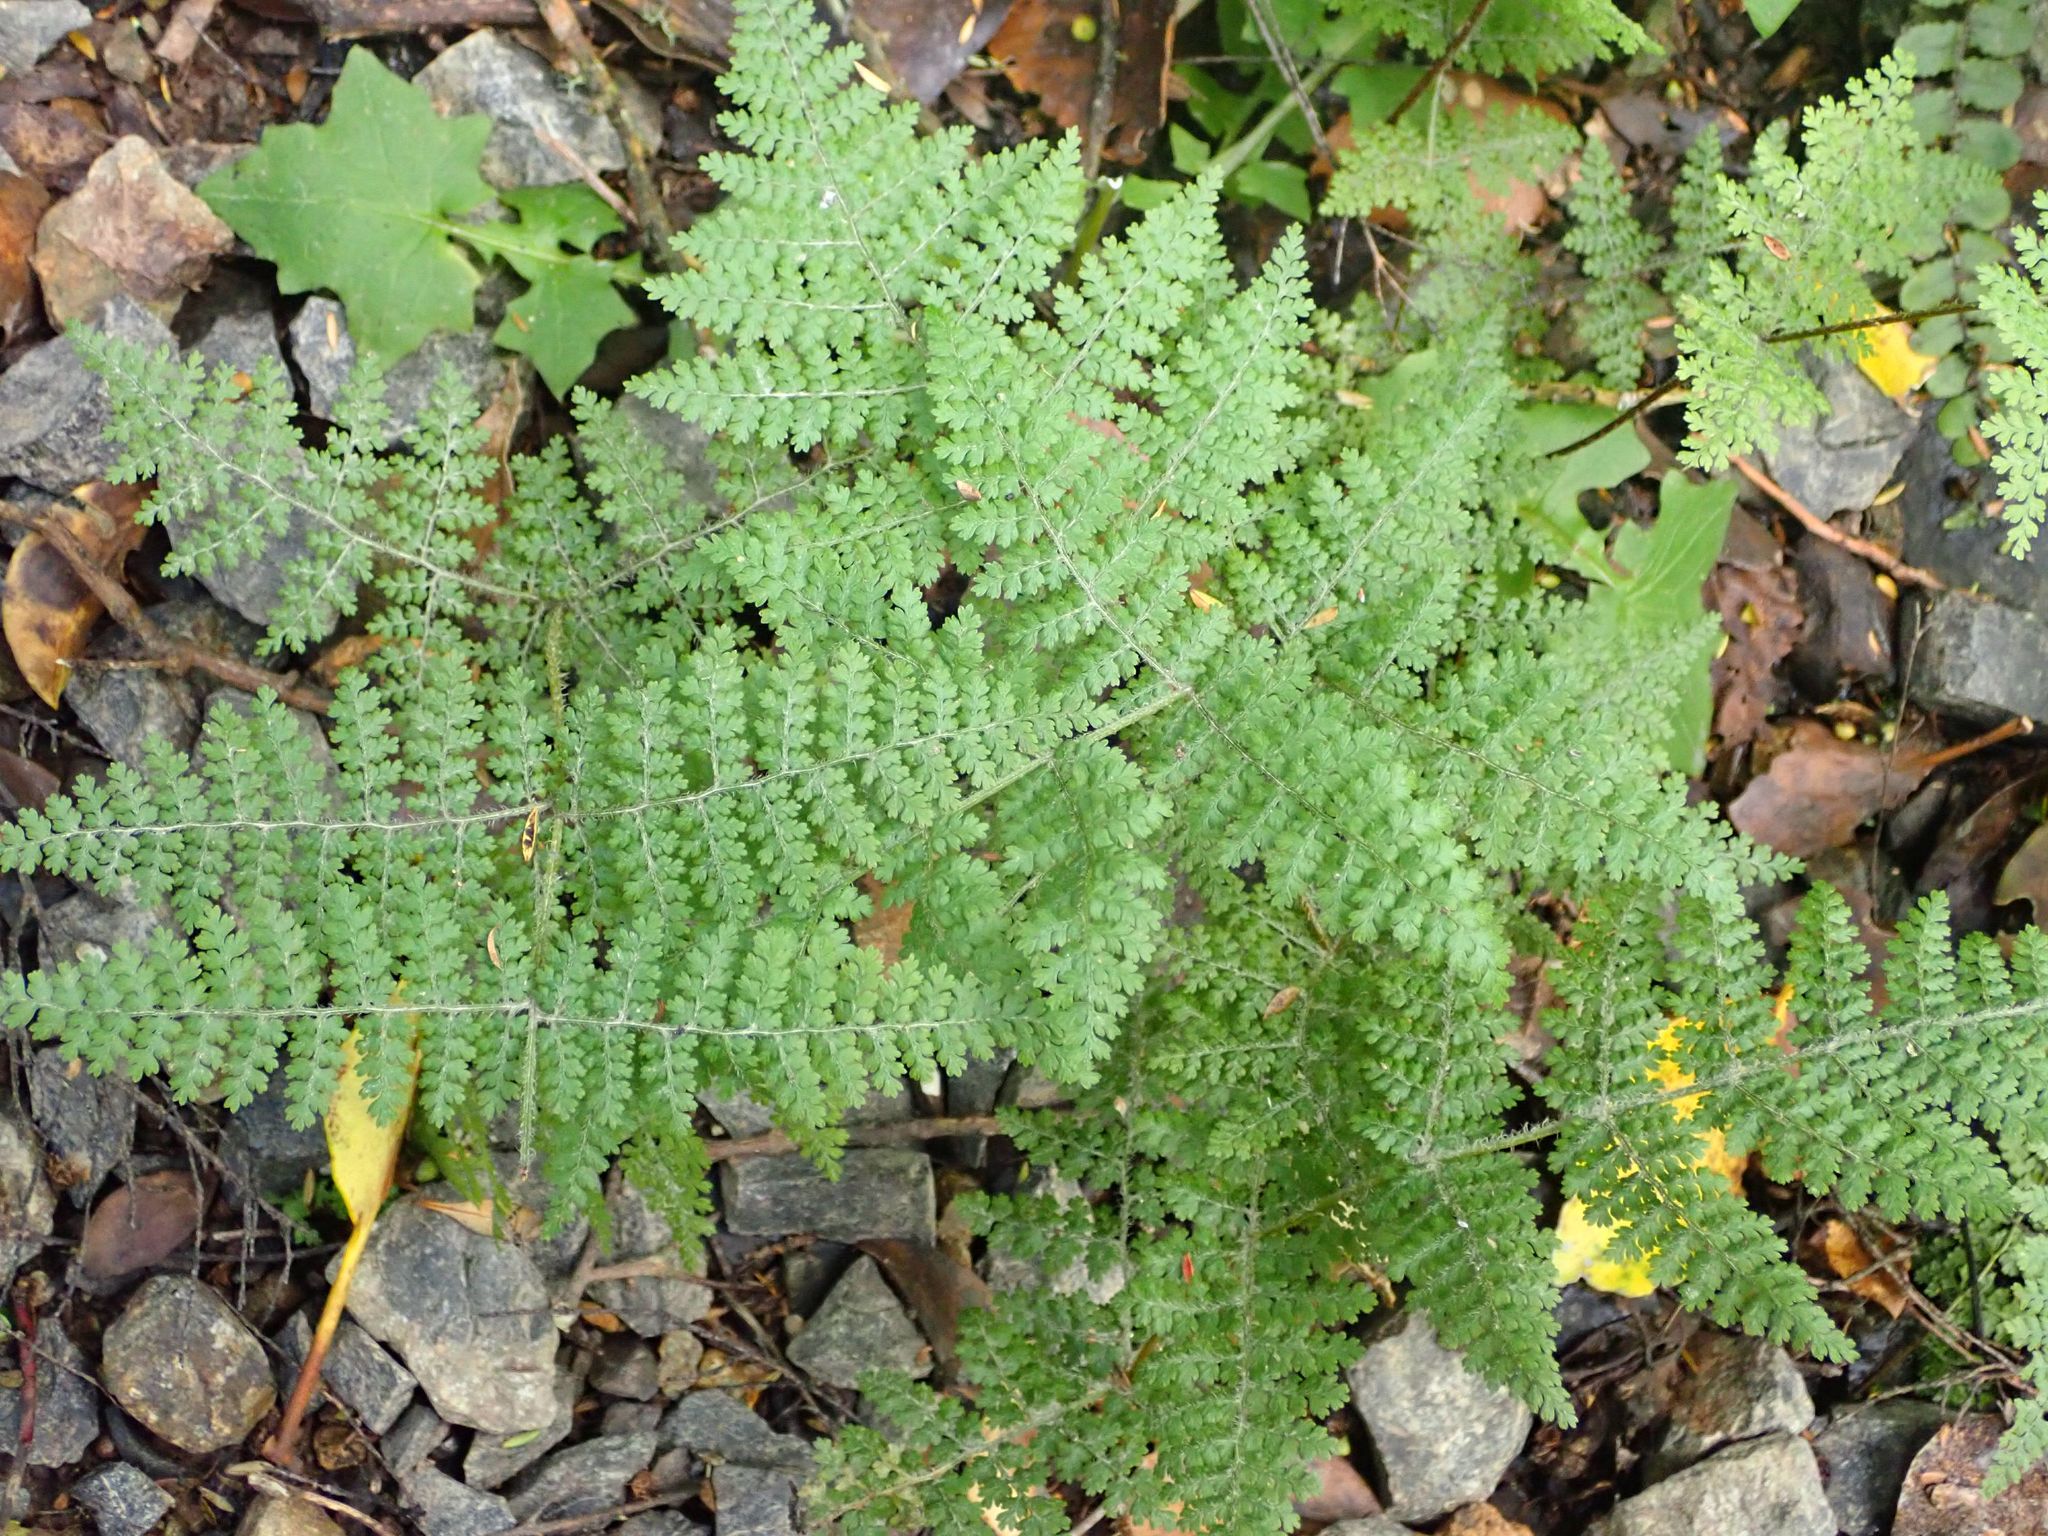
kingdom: Plantae
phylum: Tracheophyta
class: Polypodiopsida
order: Polypodiales
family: Dennstaedtiaceae
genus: Hypolepis
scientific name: Hypolepis millefolium
